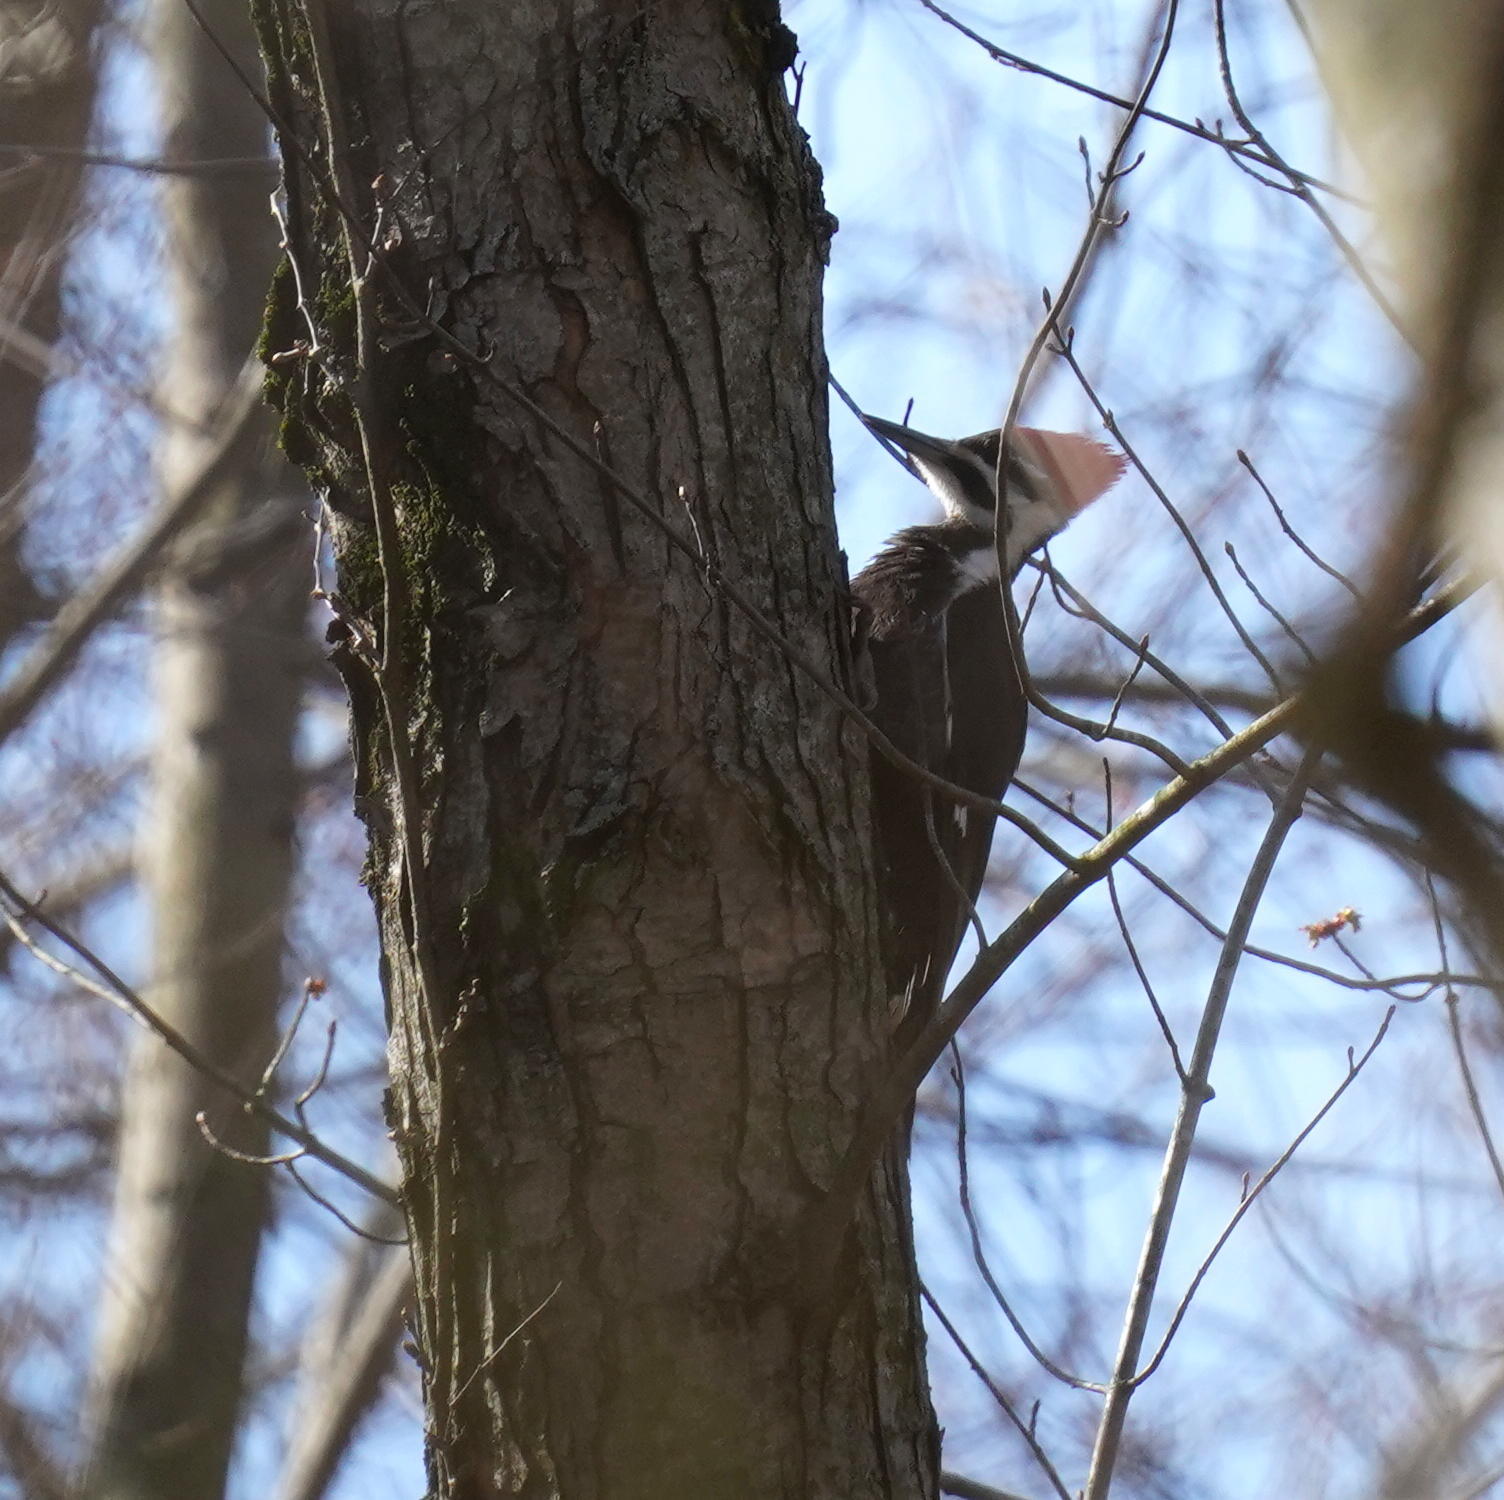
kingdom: Animalia
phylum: Chordata
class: Aves
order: Piciformes
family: Picidae
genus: Dryocopus
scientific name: Dryocopus pileatus
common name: Pileated woodpecker
